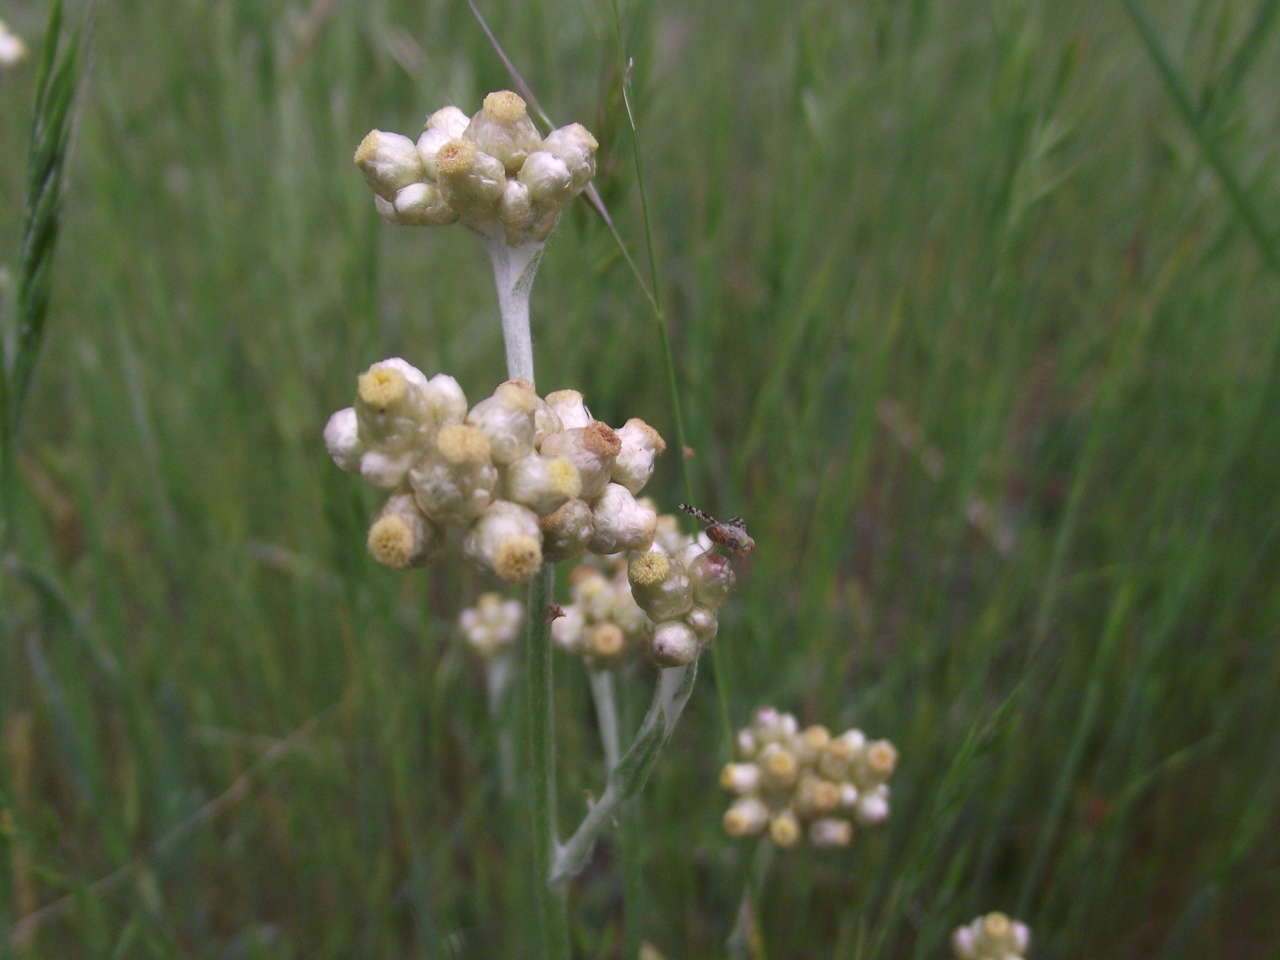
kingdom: Plantae
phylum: Tracheophyta
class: Magnoliopsida
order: Asterales
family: Asteraceae
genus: Helichrysum
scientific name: Helichrysum luteoalbum
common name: Daisy
